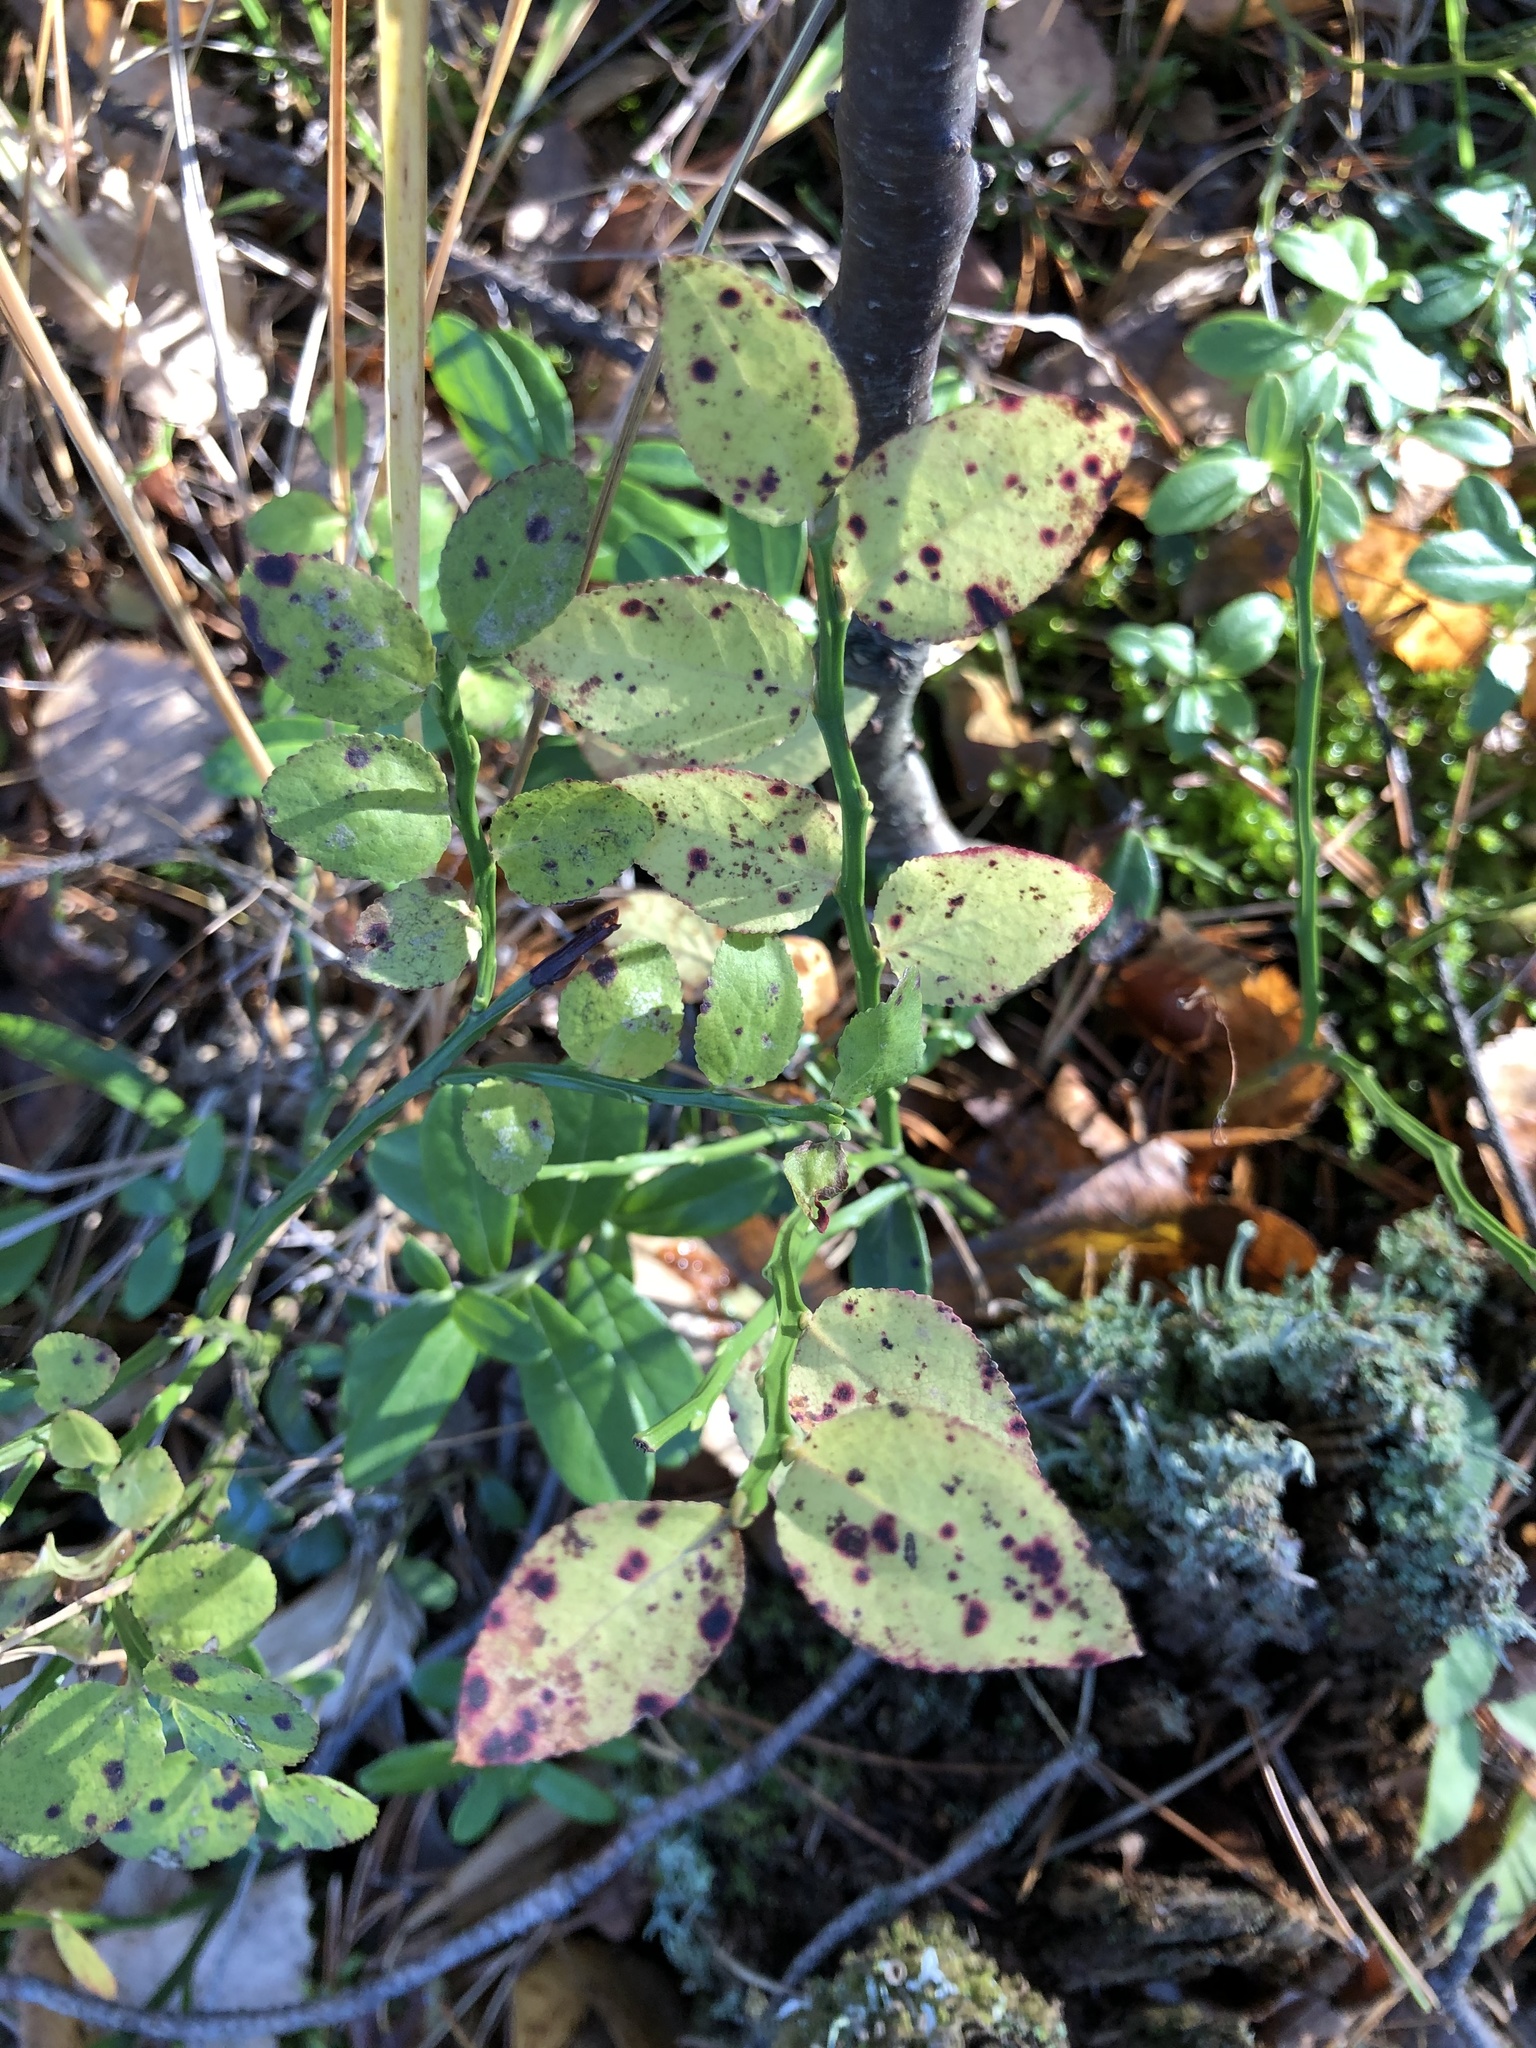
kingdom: Plantae
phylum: Tracheophyta
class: Magnoliopsida
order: Ericales
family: Ericaceae
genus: Vaccinium
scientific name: Vaccinium myrtillus
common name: Bilberry
